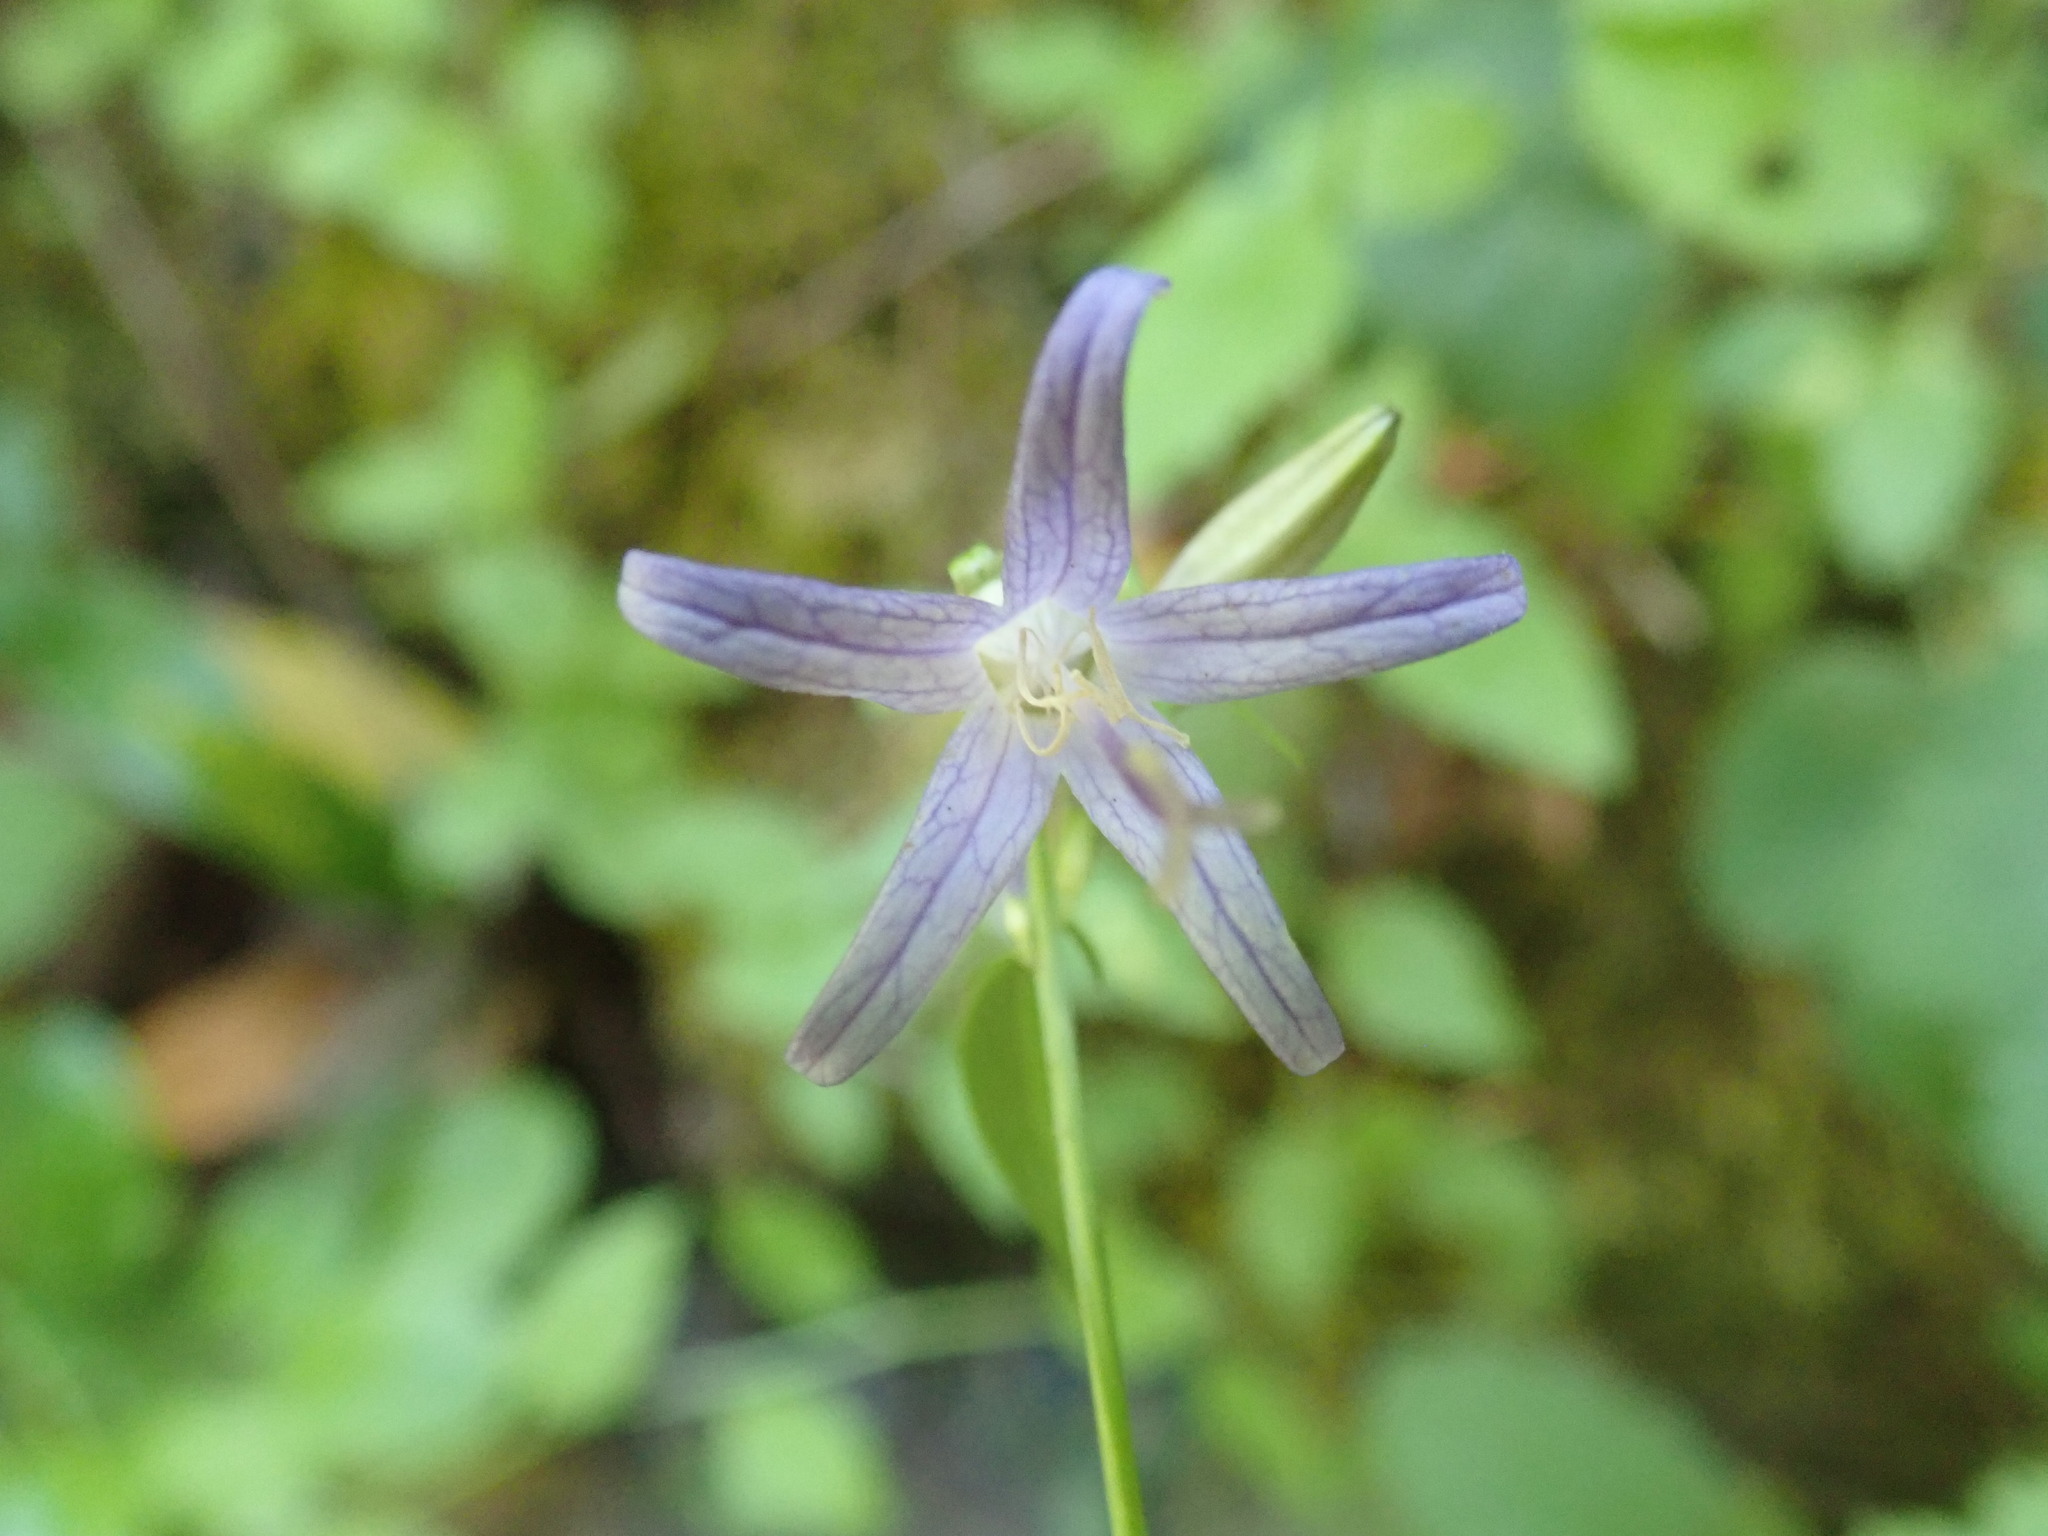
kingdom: Plantae
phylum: Tracheophyta
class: Magnoliopsida
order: Asterales
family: Campanulaceae
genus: Smithiastrum
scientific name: Smithiastrum prenanthoides
